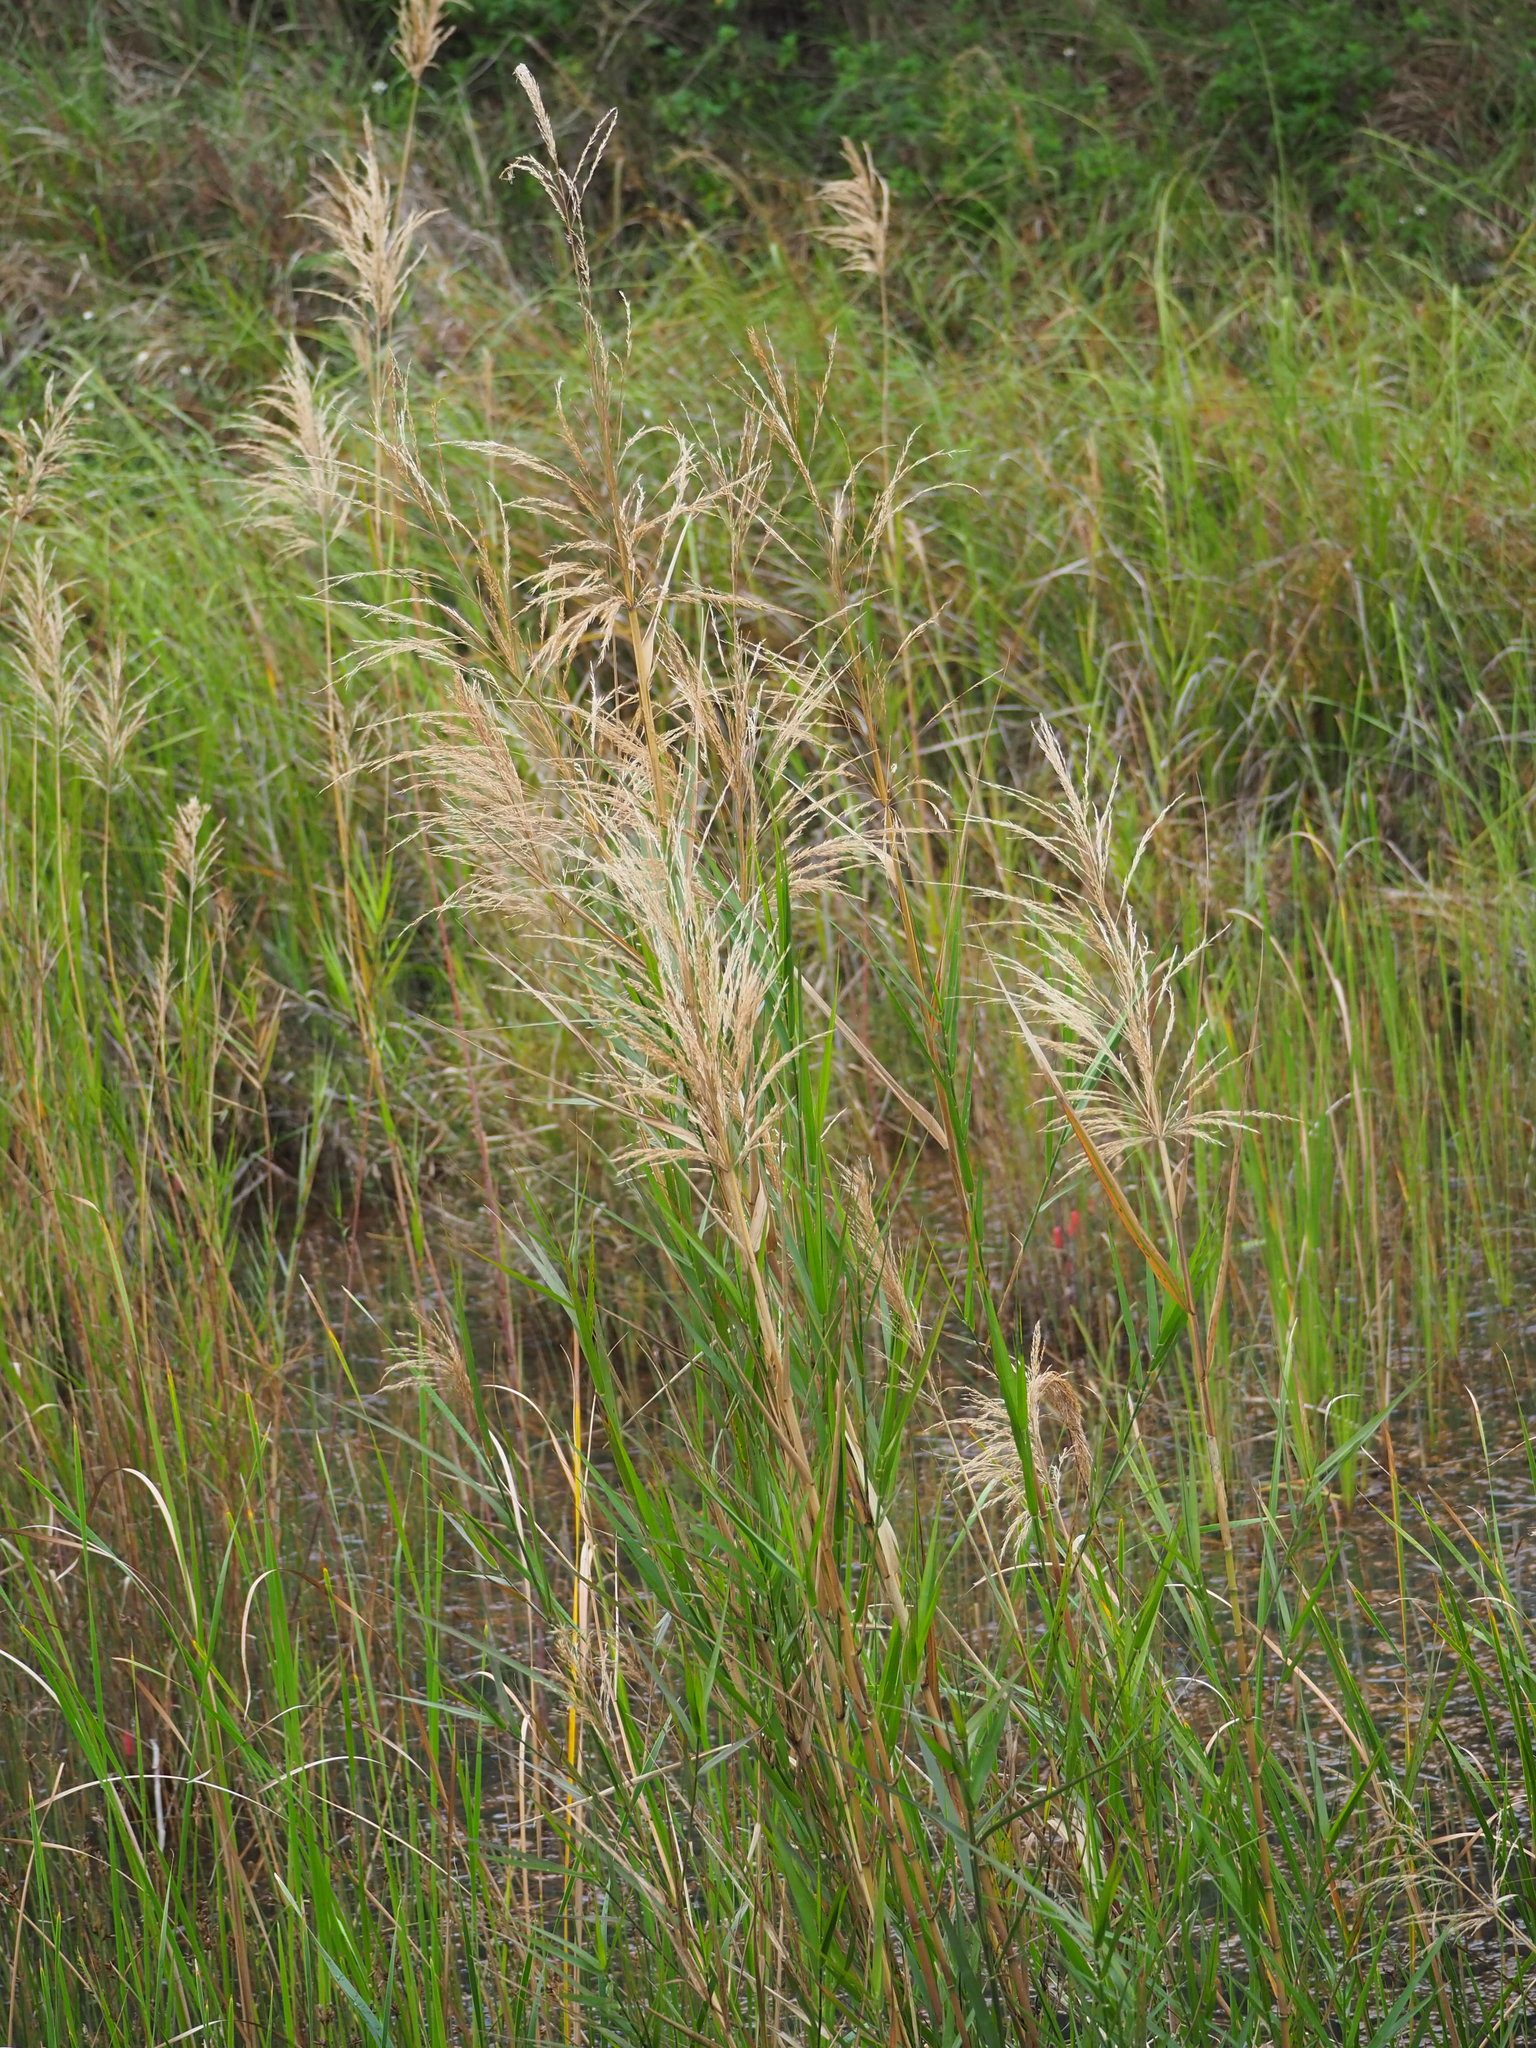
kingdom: Plantae
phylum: Tracheophyta
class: Liliopsida
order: Poales
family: Poaceae
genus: Phragmites
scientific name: Phragmites karka
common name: Tropical reed
